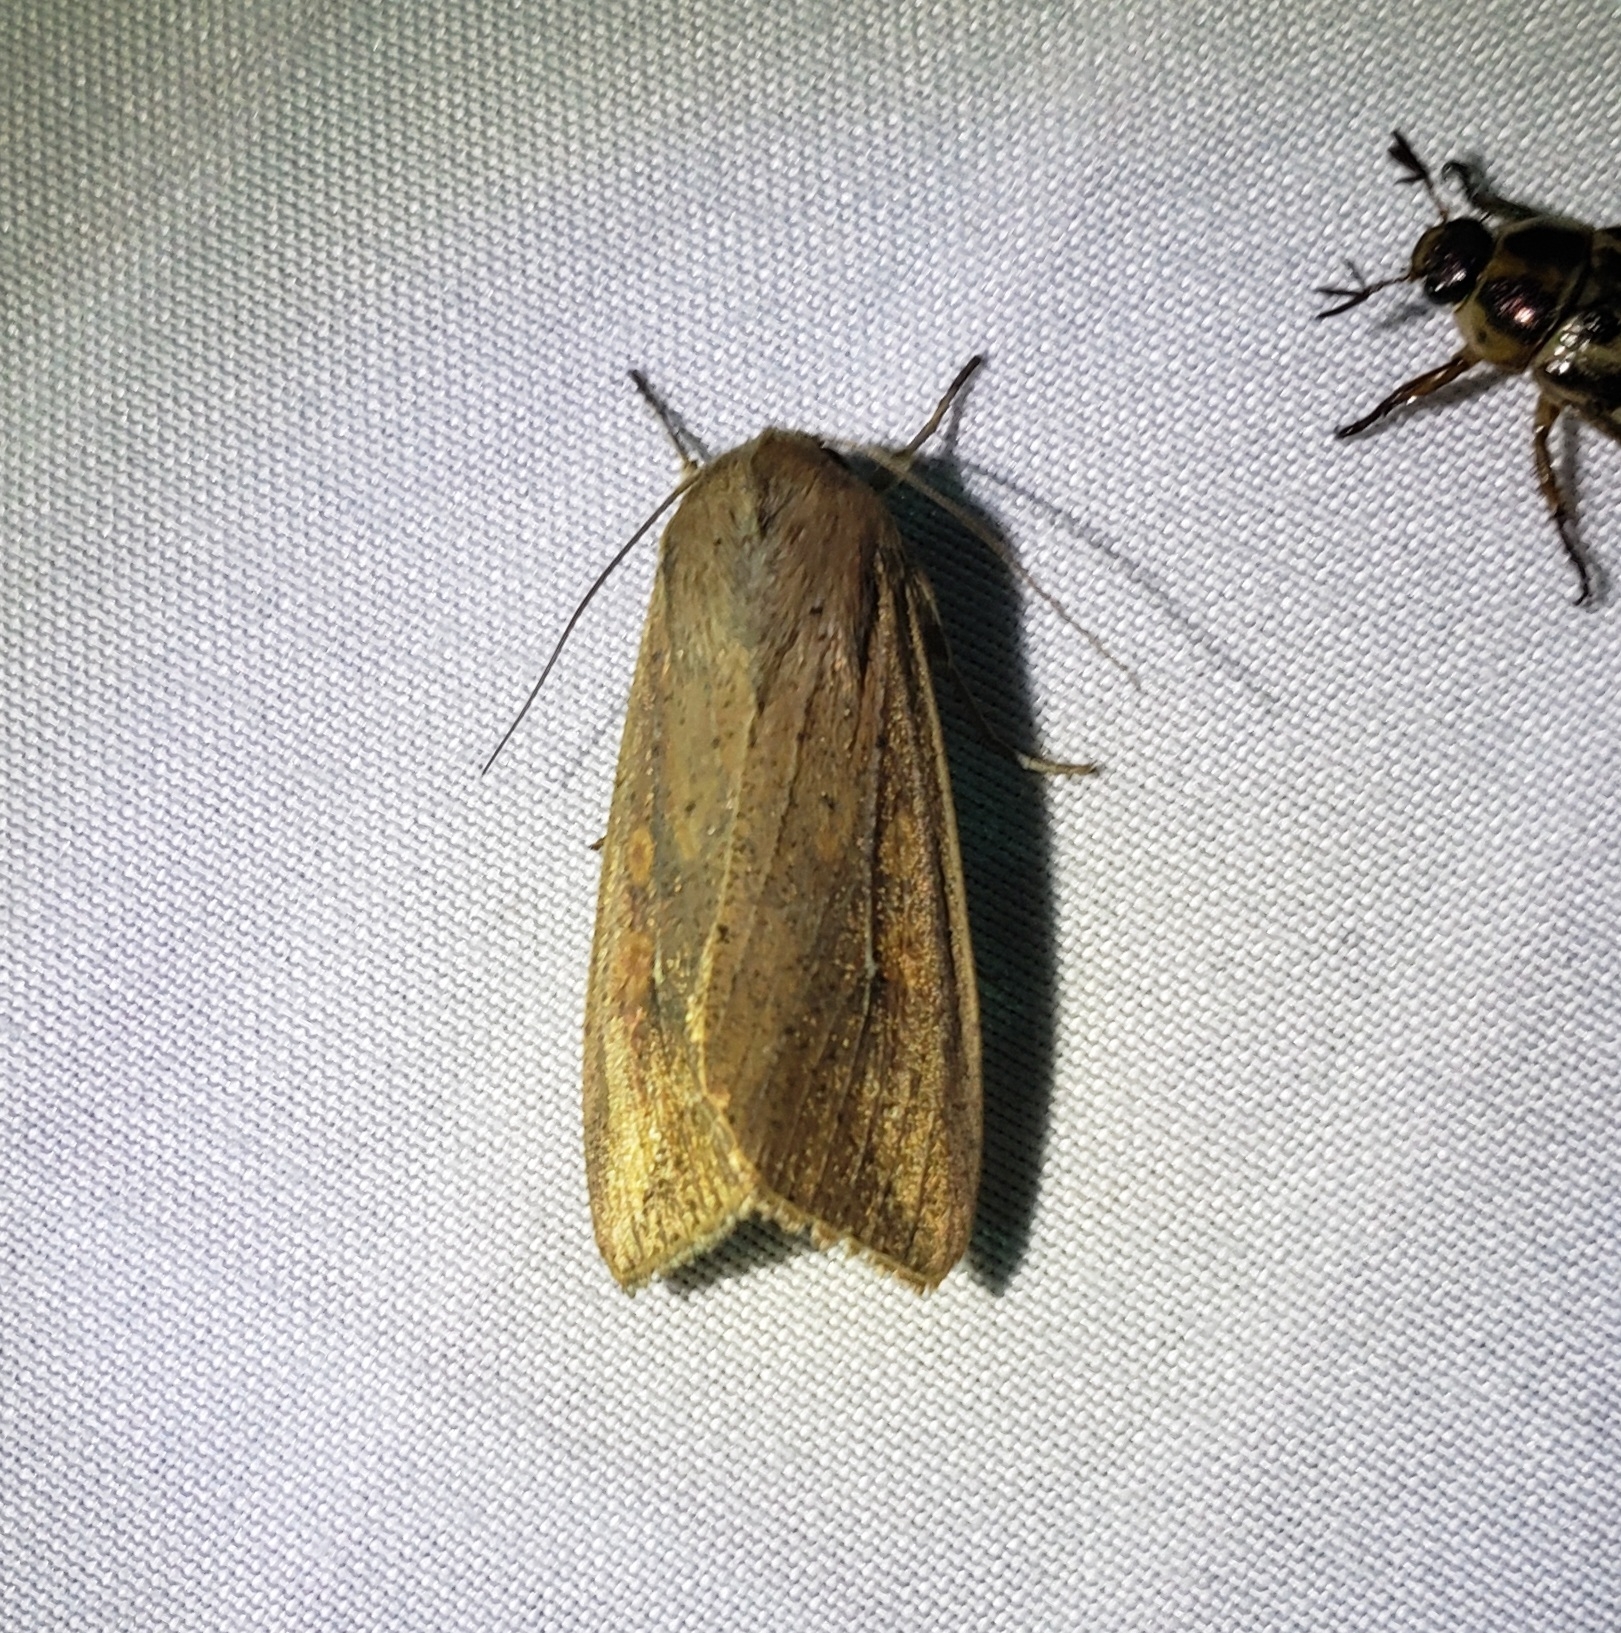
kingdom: Animalia
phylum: Arthropoda
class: Insecta
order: Lepidoptera
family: Noctuidae
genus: Mythimna
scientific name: Mythimna unipuncta
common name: White-speck
